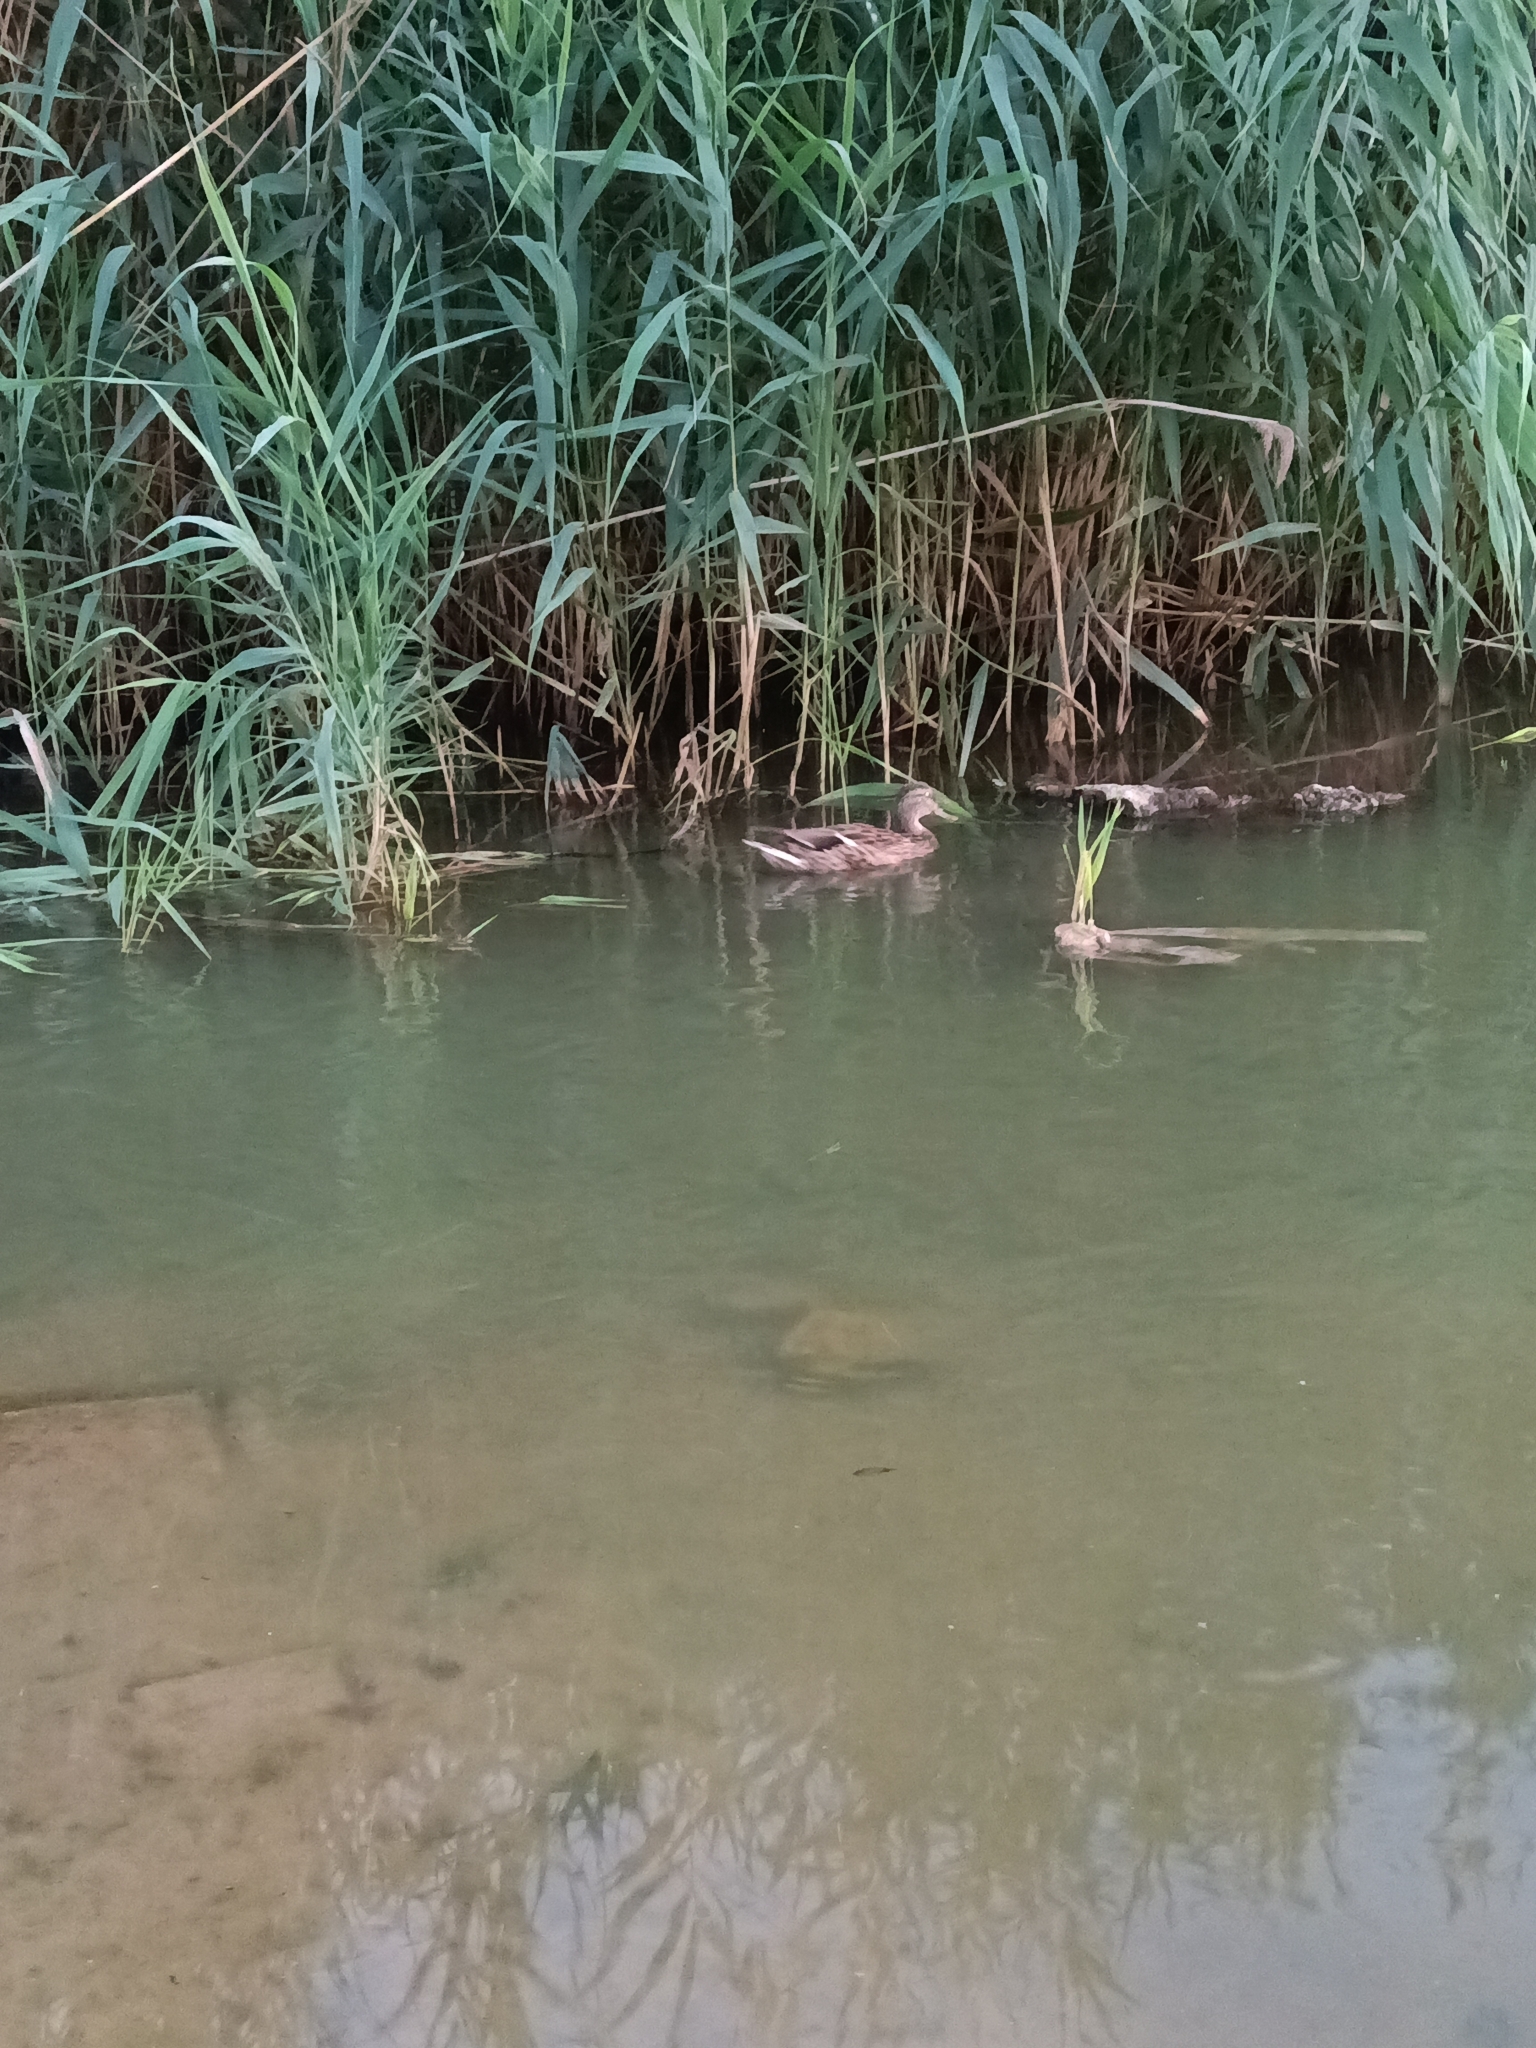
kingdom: Animalia
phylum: Chordata
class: Aves
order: Anseriformes
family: Anatidae
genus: Anas
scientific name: Anas platyrhynchos
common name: Mallard
